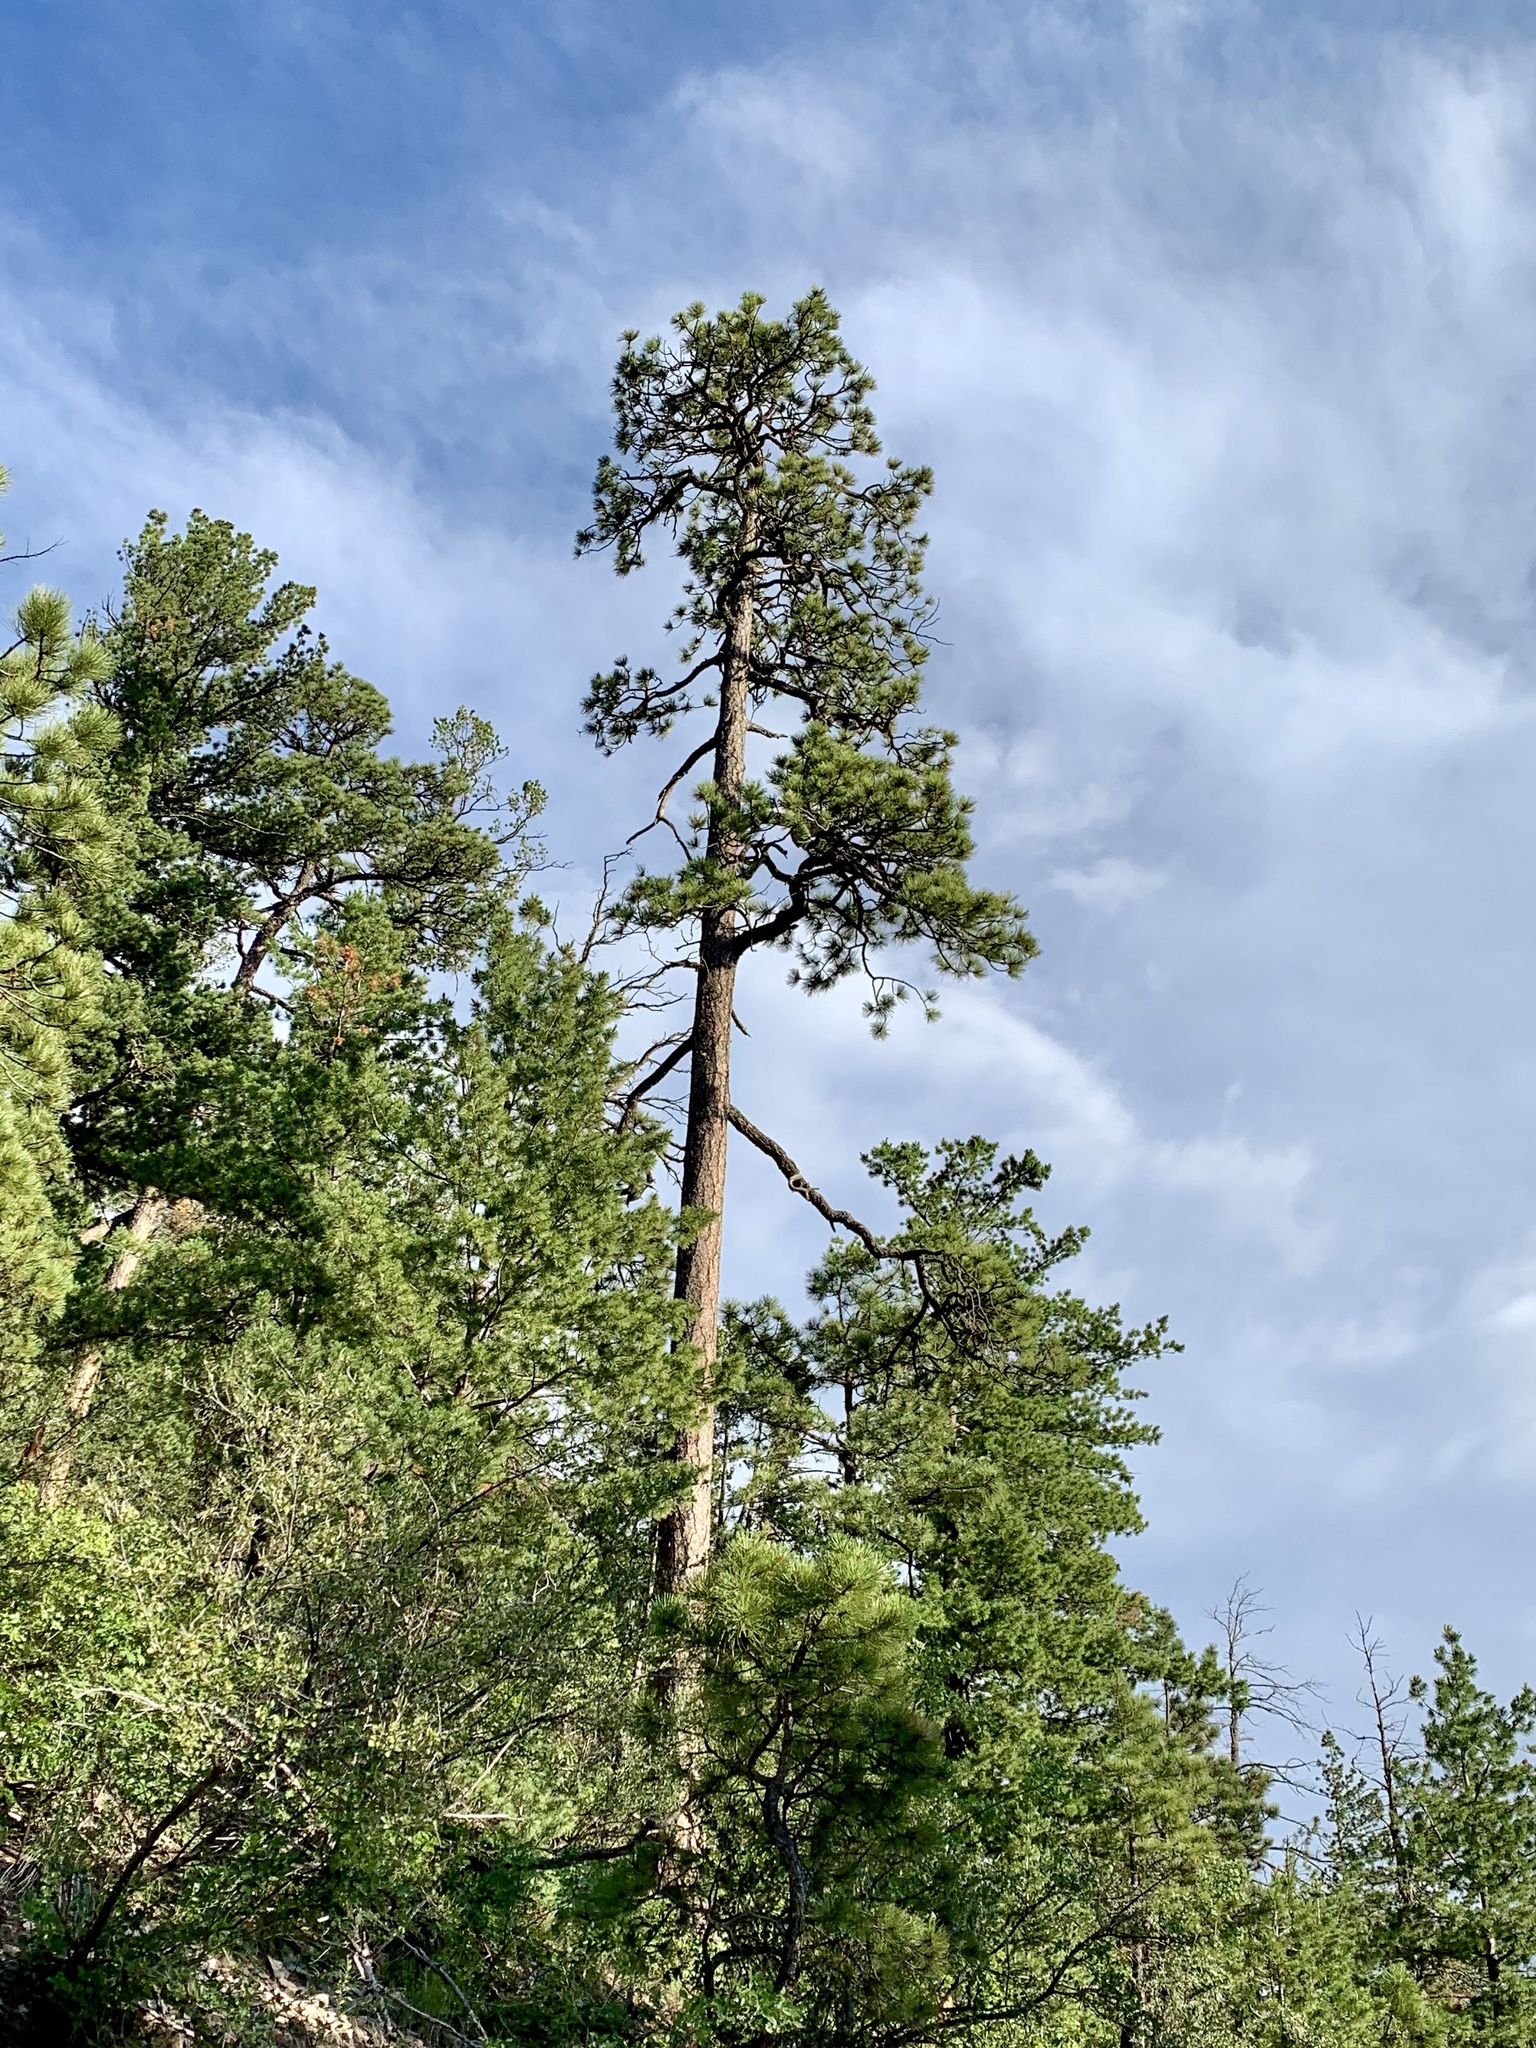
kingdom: Plantae
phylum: Tracheophyta
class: Pinopsida
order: Pinales
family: Pinaceae
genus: Pinus
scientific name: Pinus ponderosa
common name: Western yellow-pine
